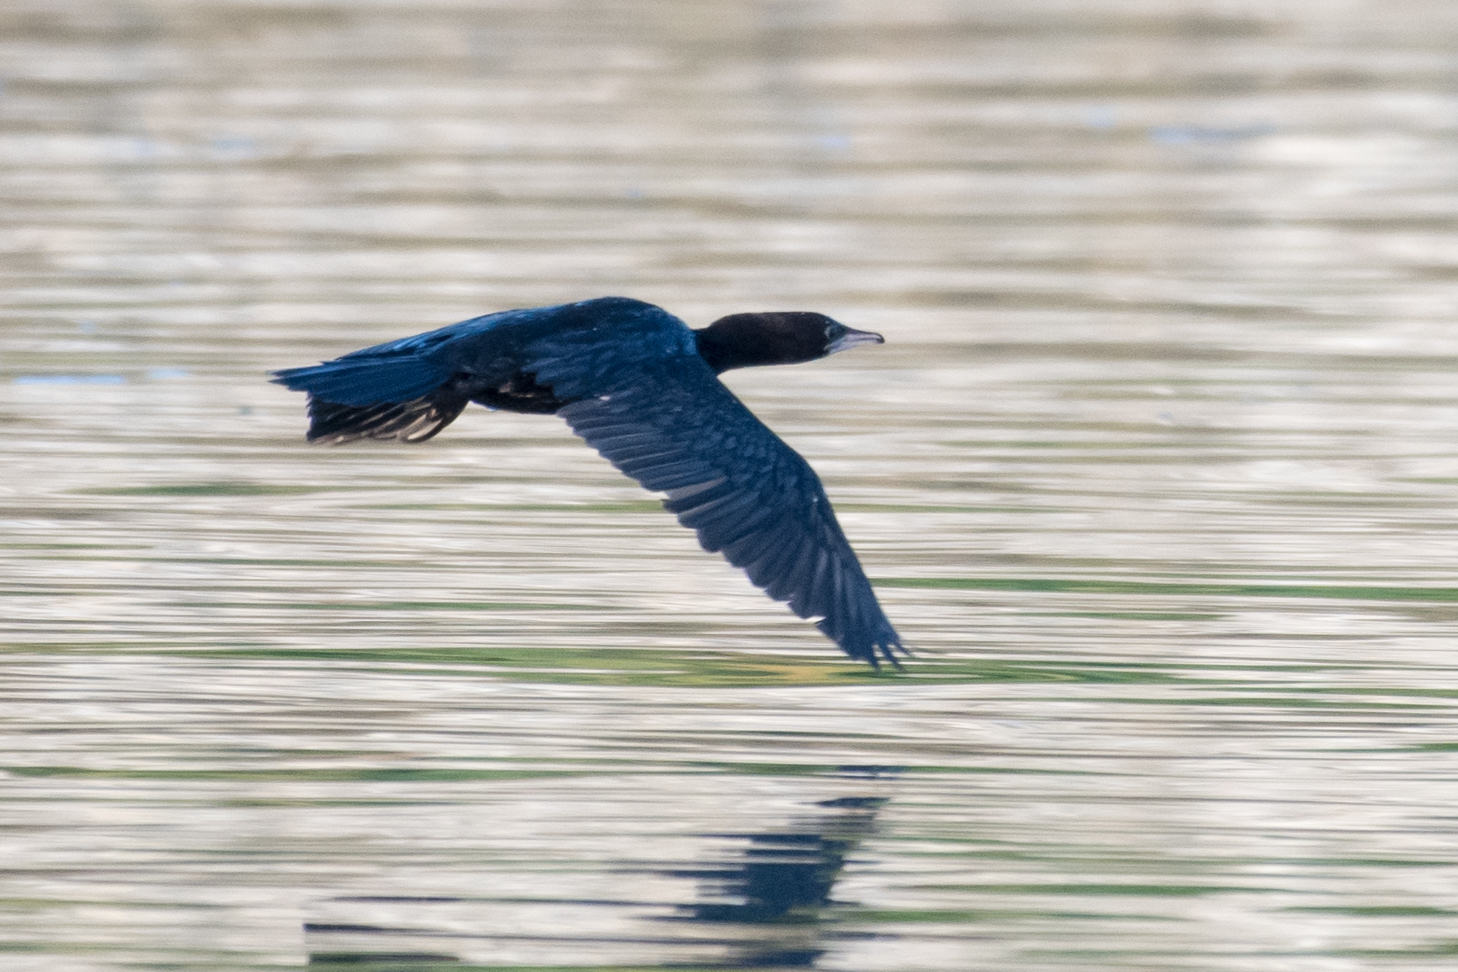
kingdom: Animalia
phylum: Chordata
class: Aves
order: Suliformes
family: Phalacrocoracidae
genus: Microcarbo
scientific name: Microcarbo pygmaeus
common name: Pygmy cormorant
